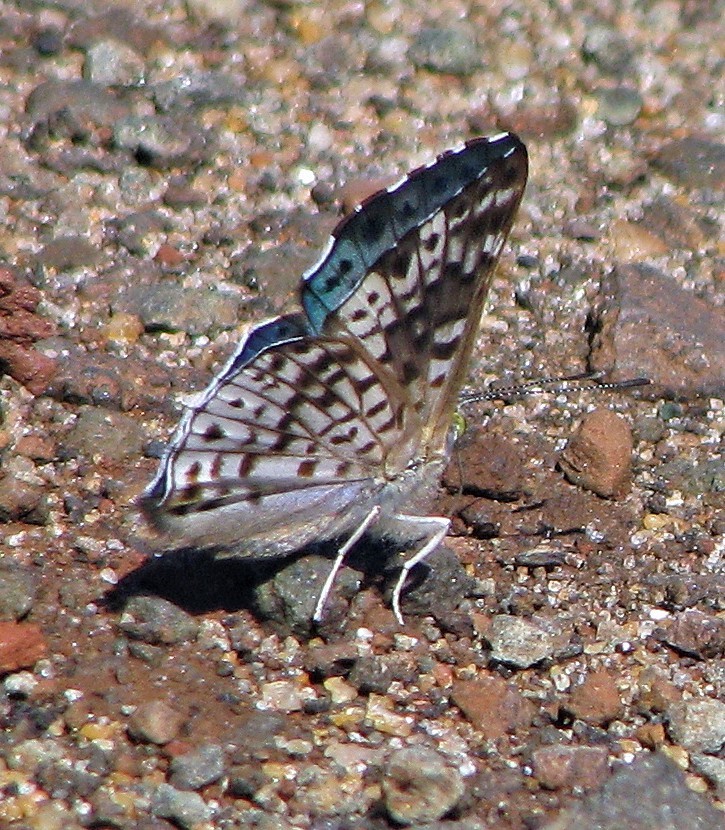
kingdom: Animalia
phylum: Arthropoda
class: Insecta
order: Lepidoptera
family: Riodinidae
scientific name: Riodinidae
